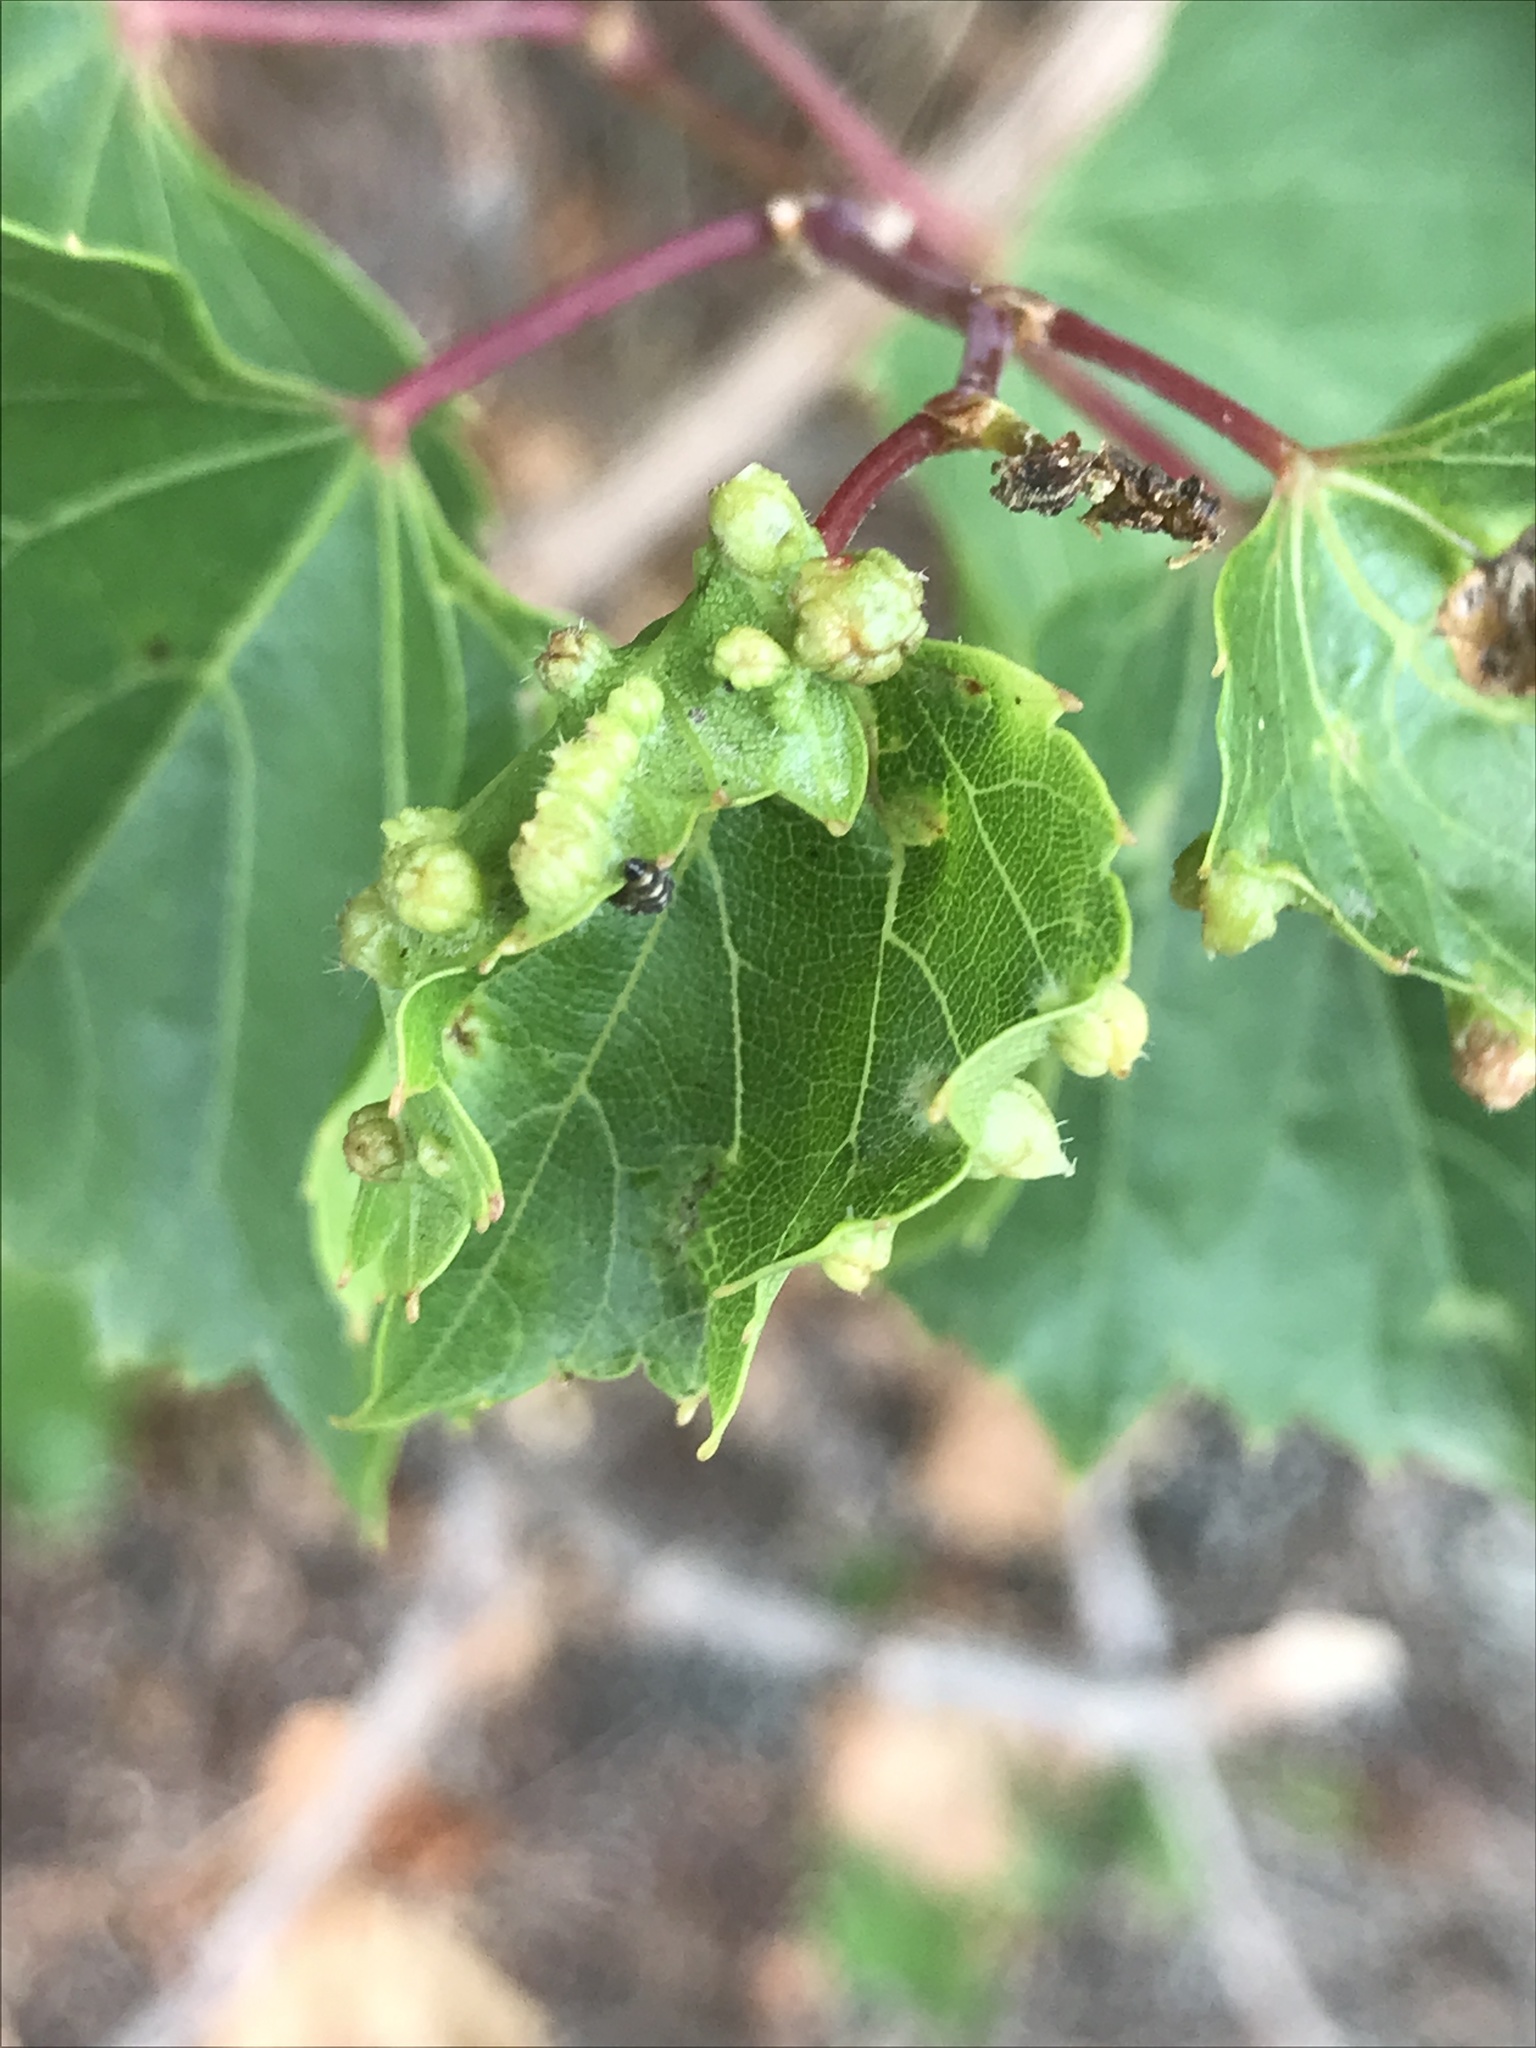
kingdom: Animalia
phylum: Arthropoda
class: Insecta
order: Hemiptera
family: Phylloxeridae
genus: Daktulosphaira
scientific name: Daktulosphaira vitifoliae
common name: Grape phylloxera
